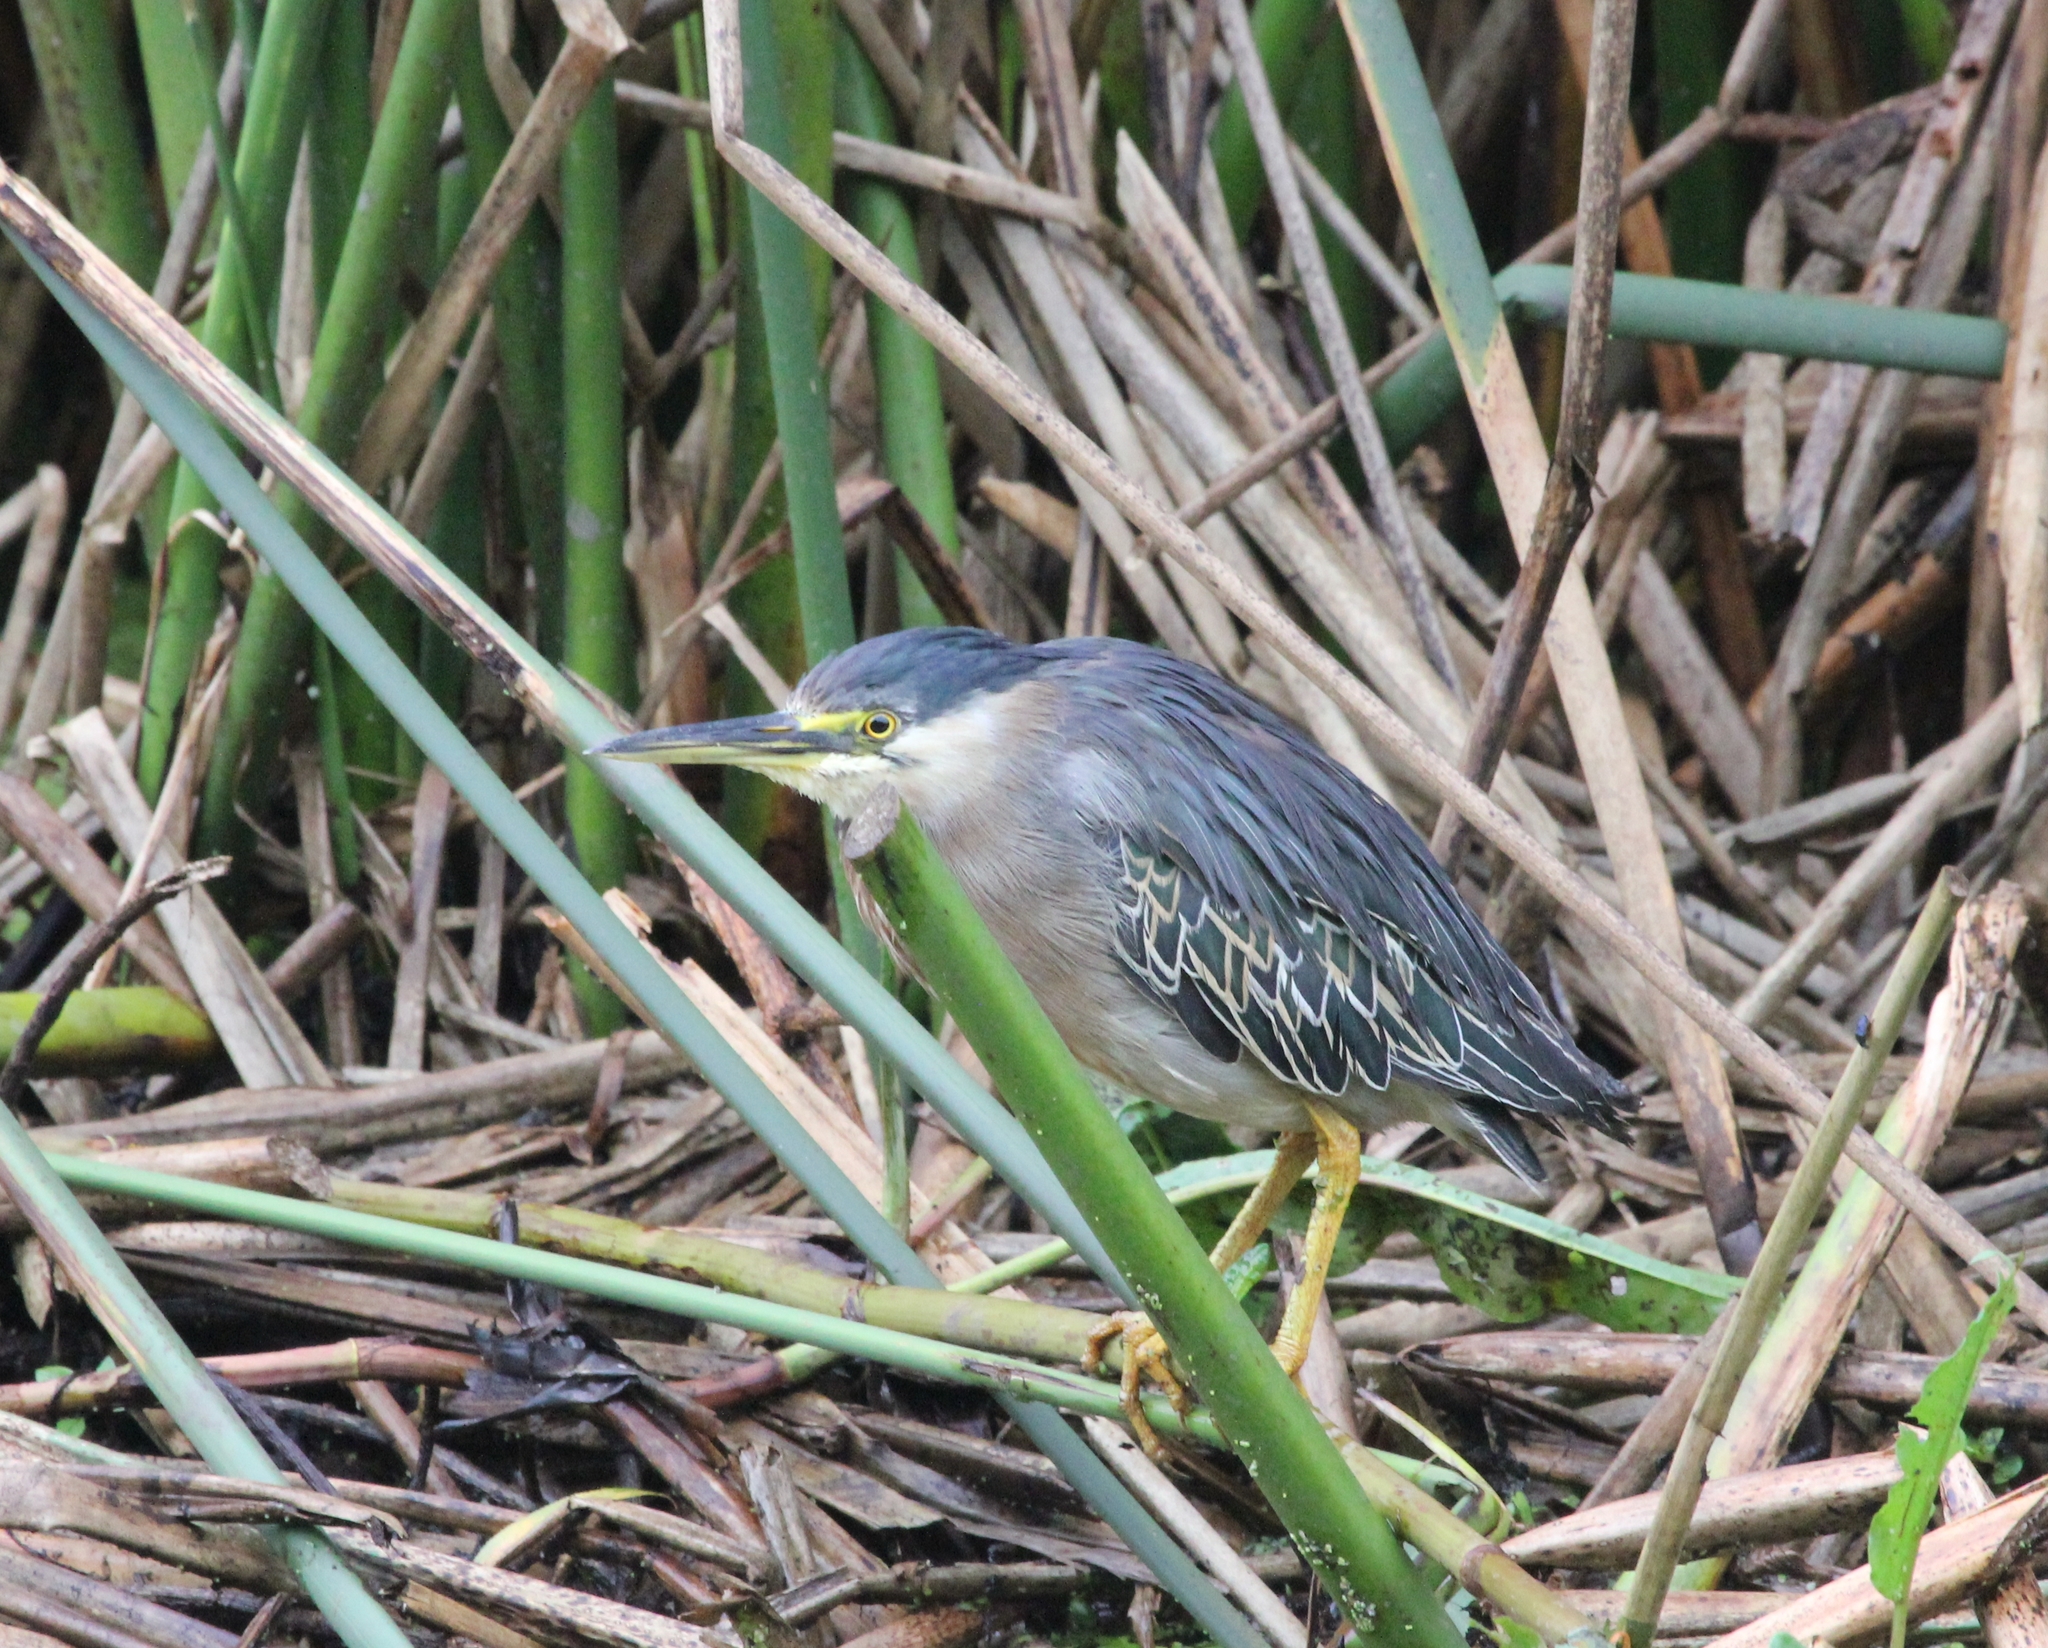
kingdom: Animalia
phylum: Chordata
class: Aves
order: Pelecaniformes
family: Ardeidae
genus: Butorides
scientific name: Butorides striata
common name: Striated heron
